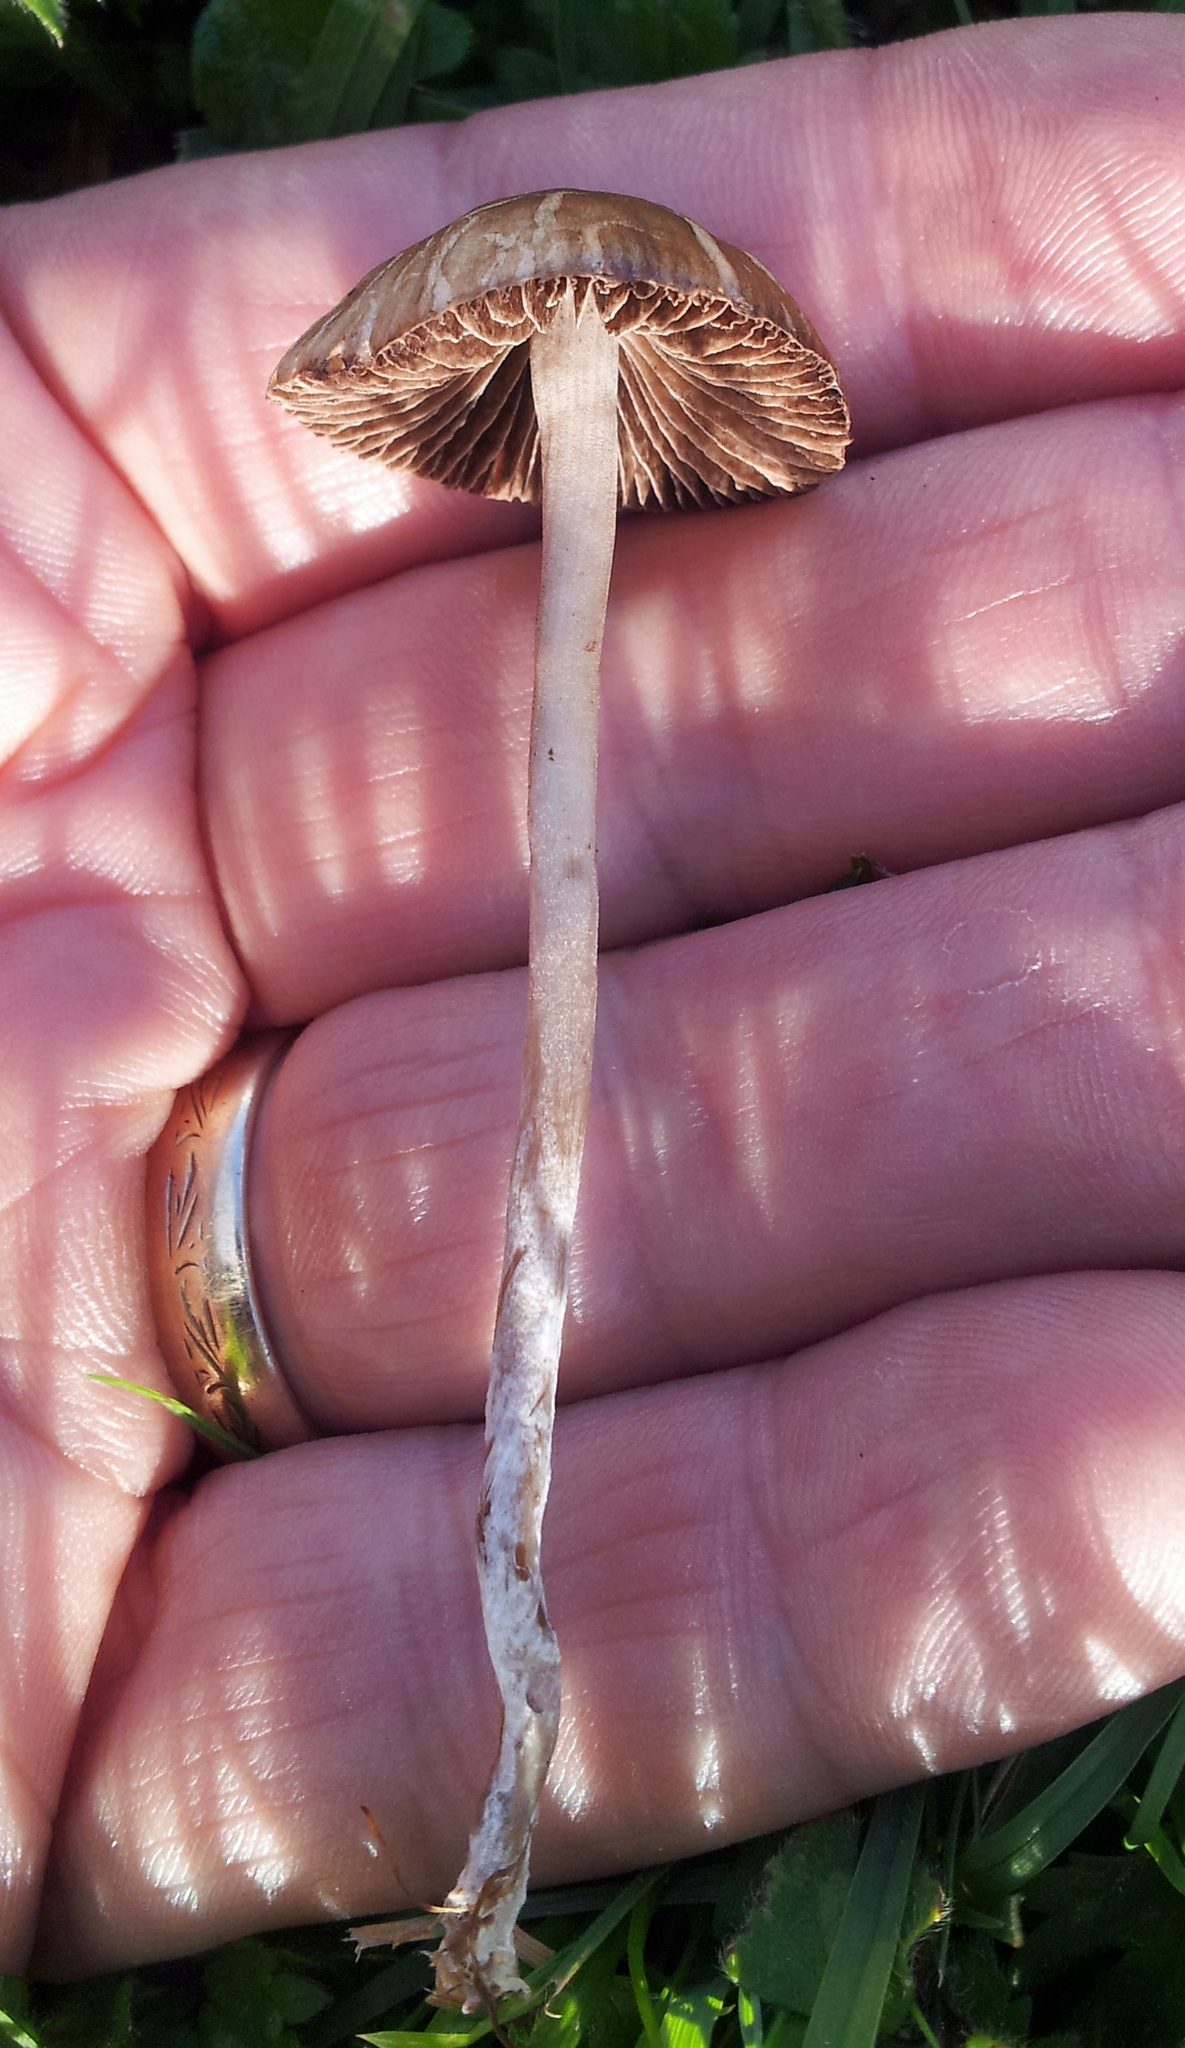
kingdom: Fungi
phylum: Basidiomycota
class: Agaricomycetes
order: Agaricales
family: Bolbitiaceae
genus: Panaeolina
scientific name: Panaeolina foenisecii
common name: Brown hay cap
